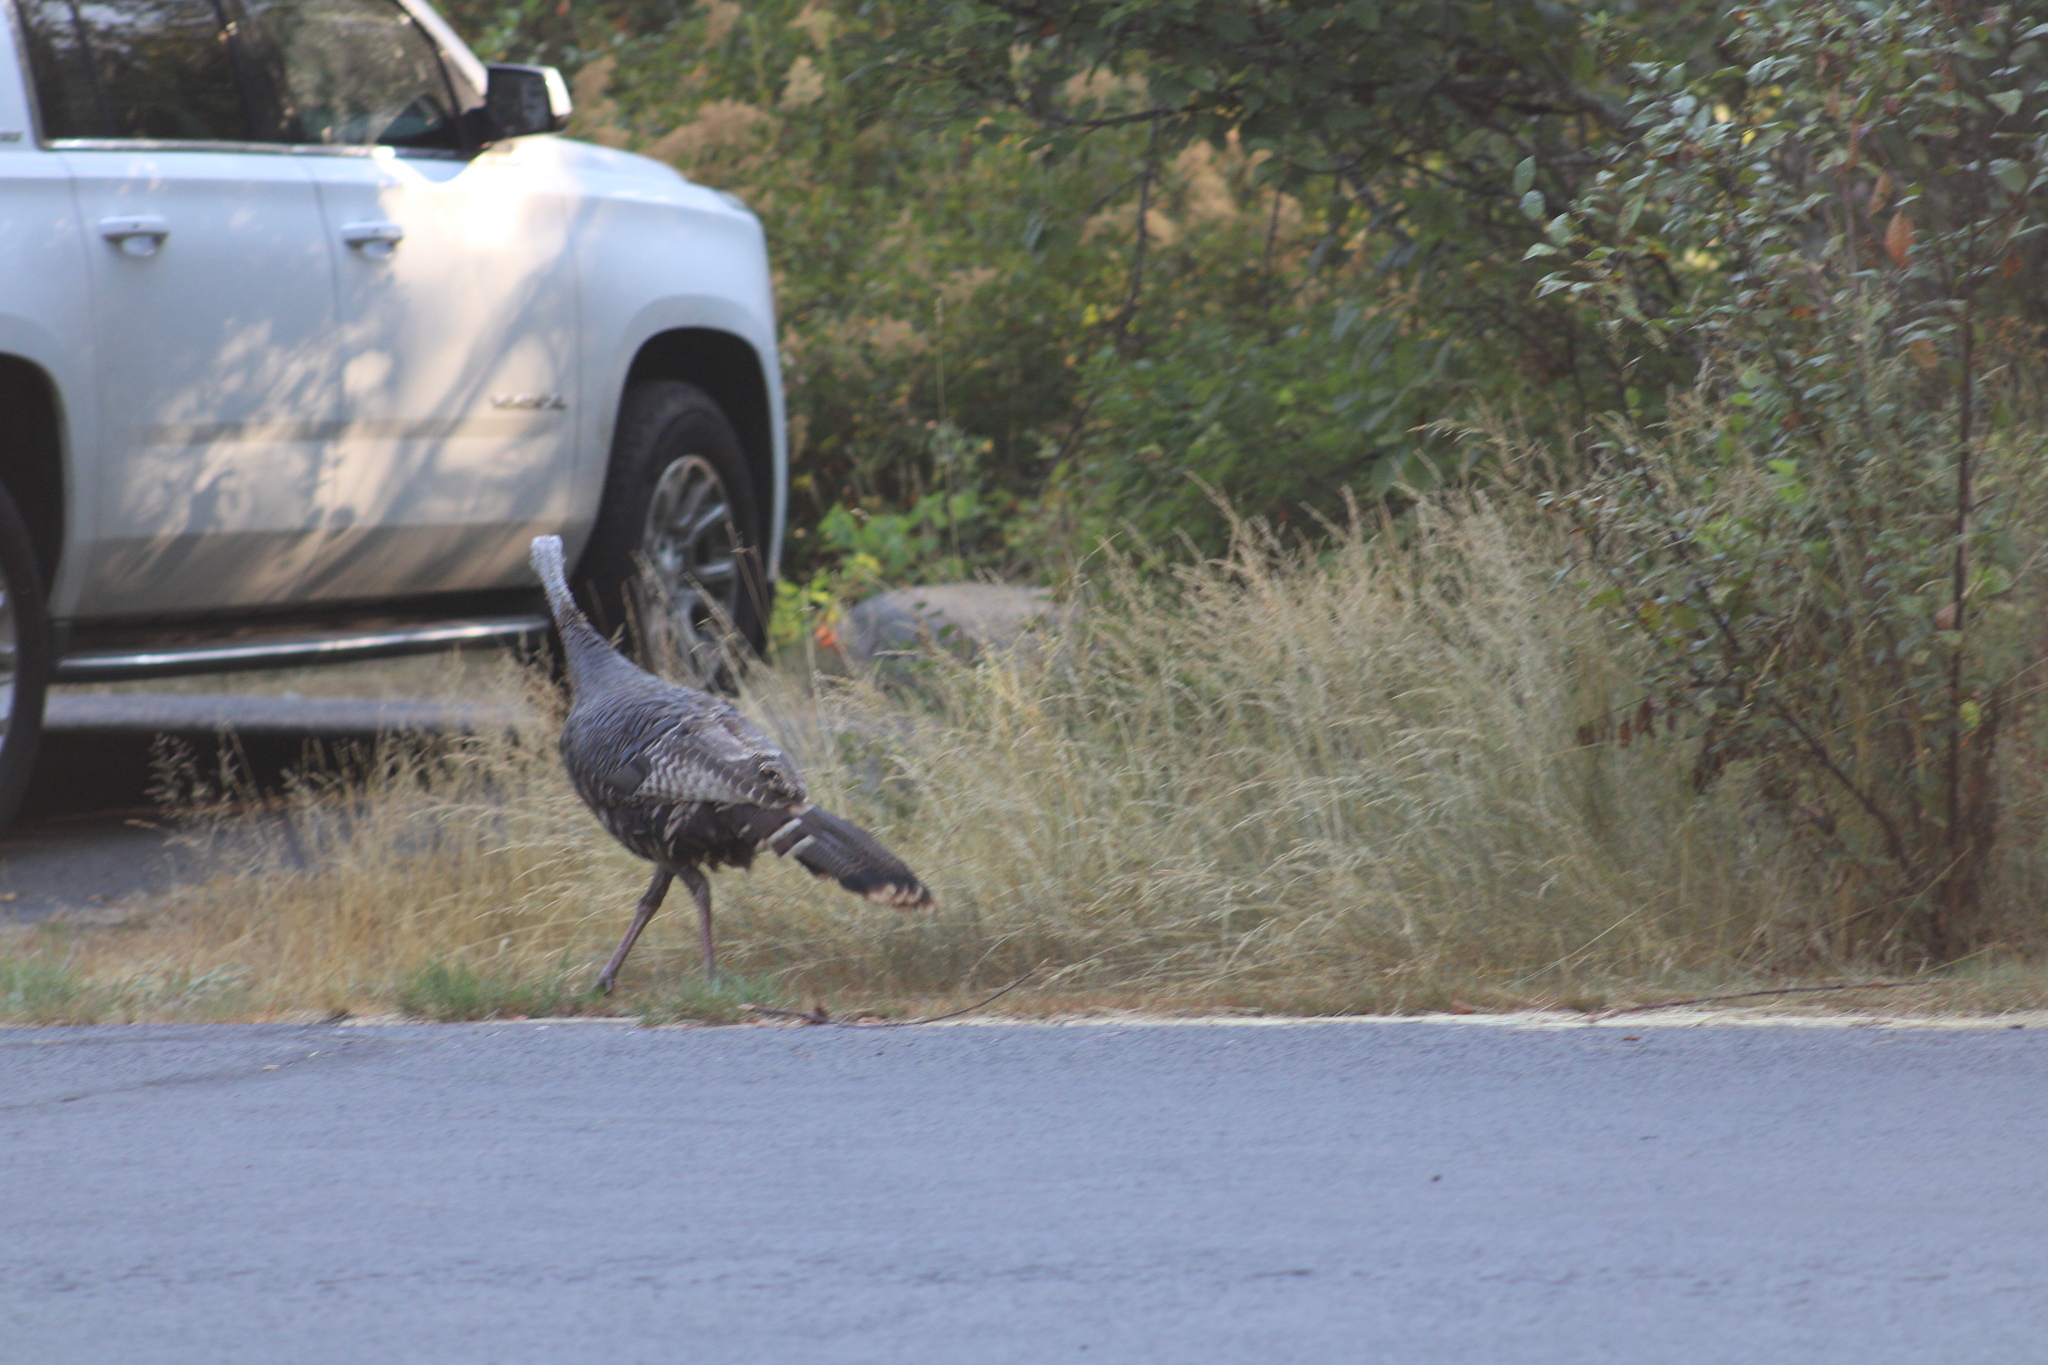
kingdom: Animalia
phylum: Chordata
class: Aves
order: Galliformes
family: Phasianidae
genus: Meleagris
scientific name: Meleagris gallopavo
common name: Wild turkey
